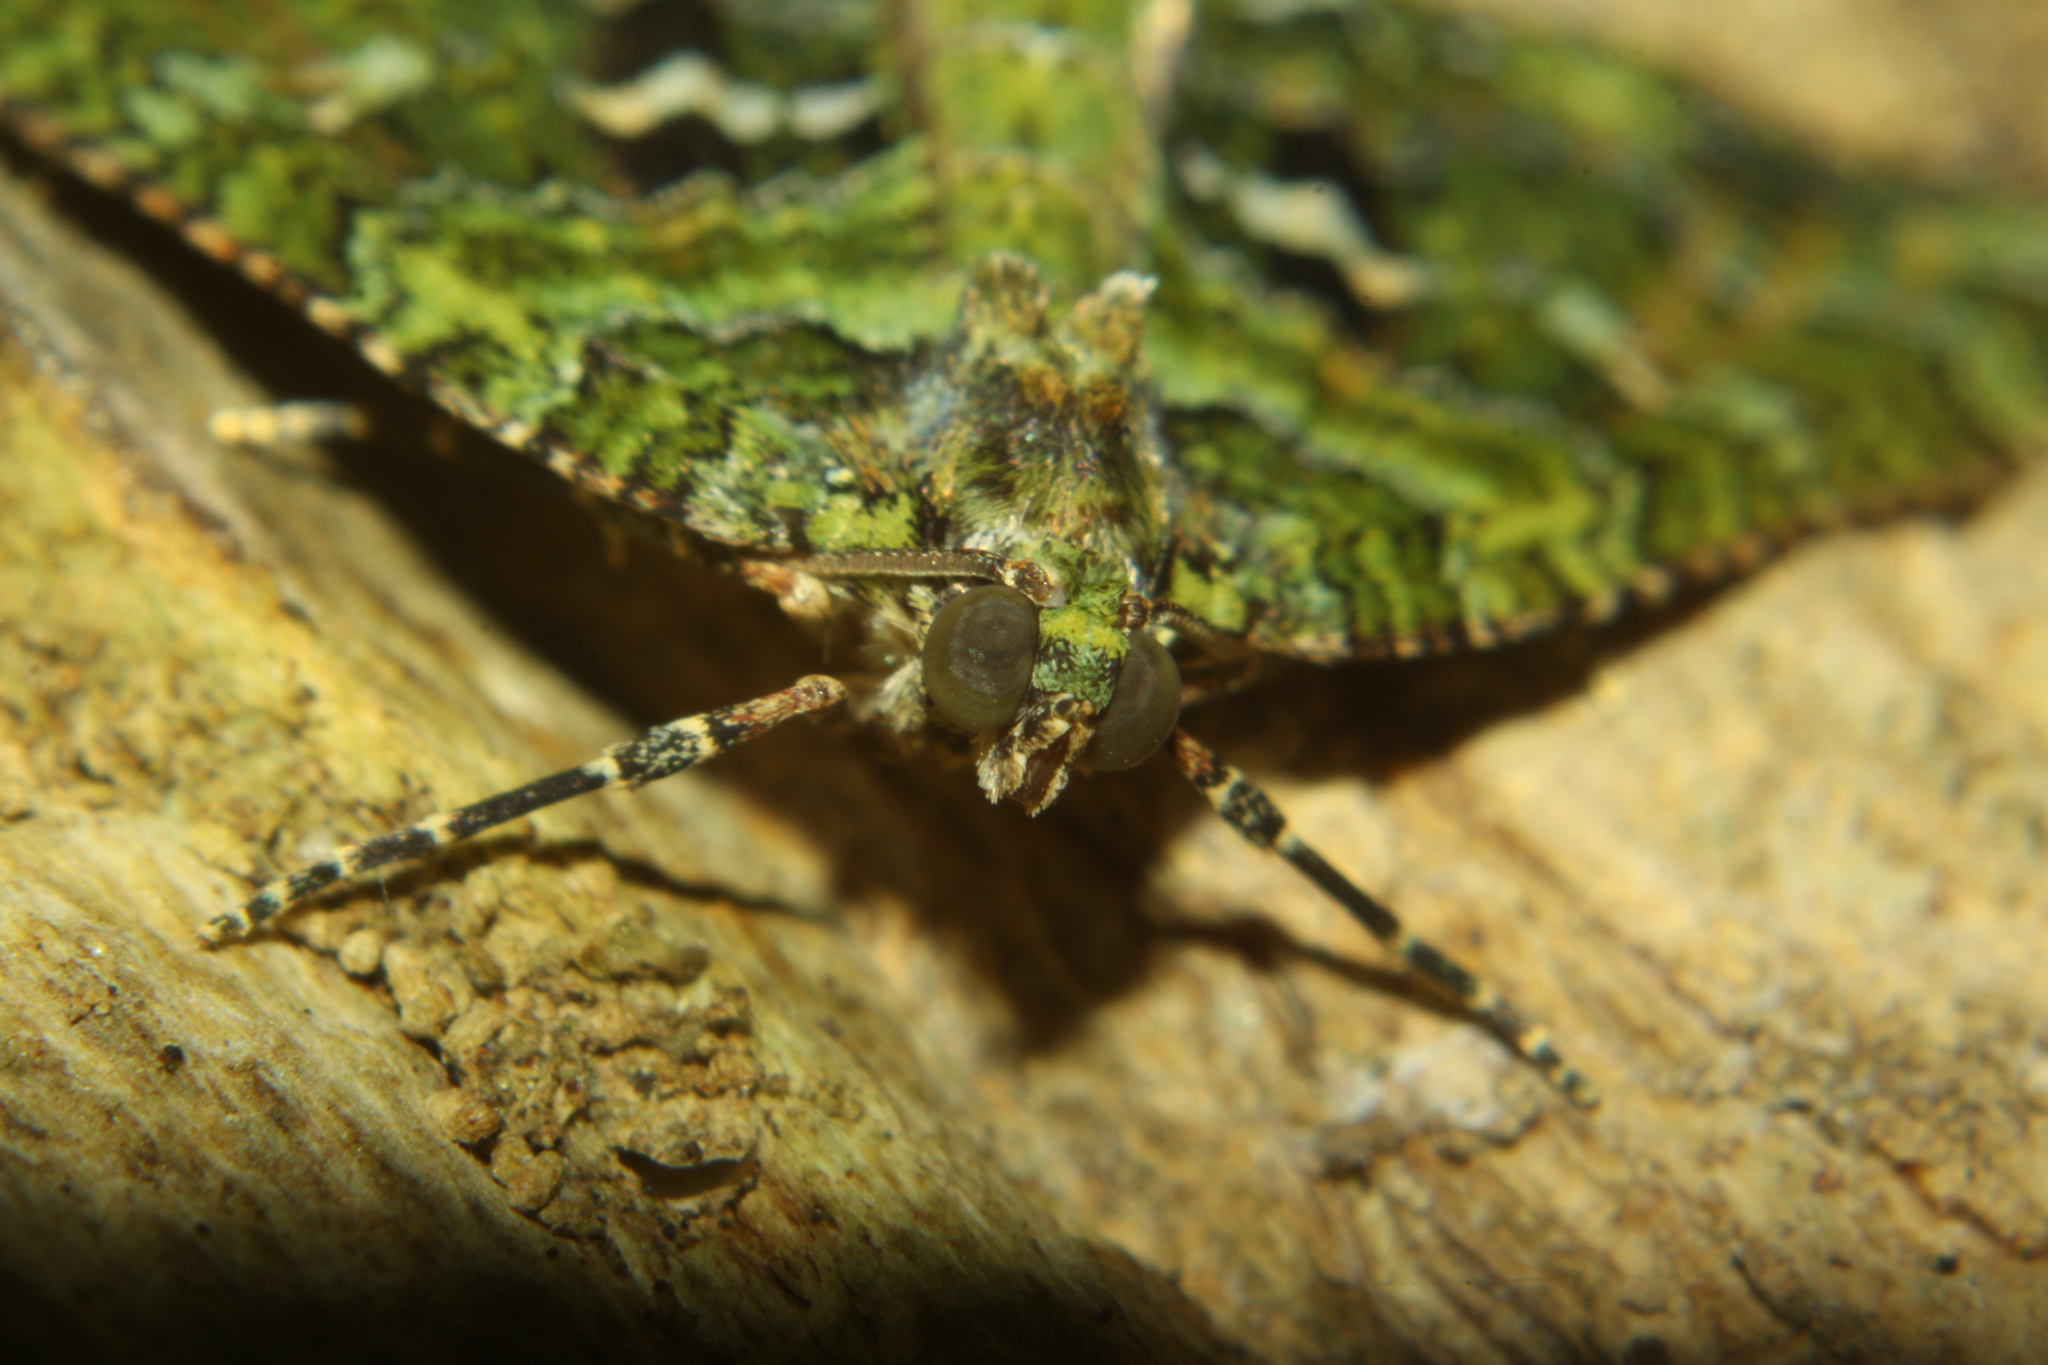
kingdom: Animalia
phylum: Arthropoda
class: Insecta
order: Lepidoptera
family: Geometridae
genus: Austrocidaria
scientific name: Austrocidaria similata
